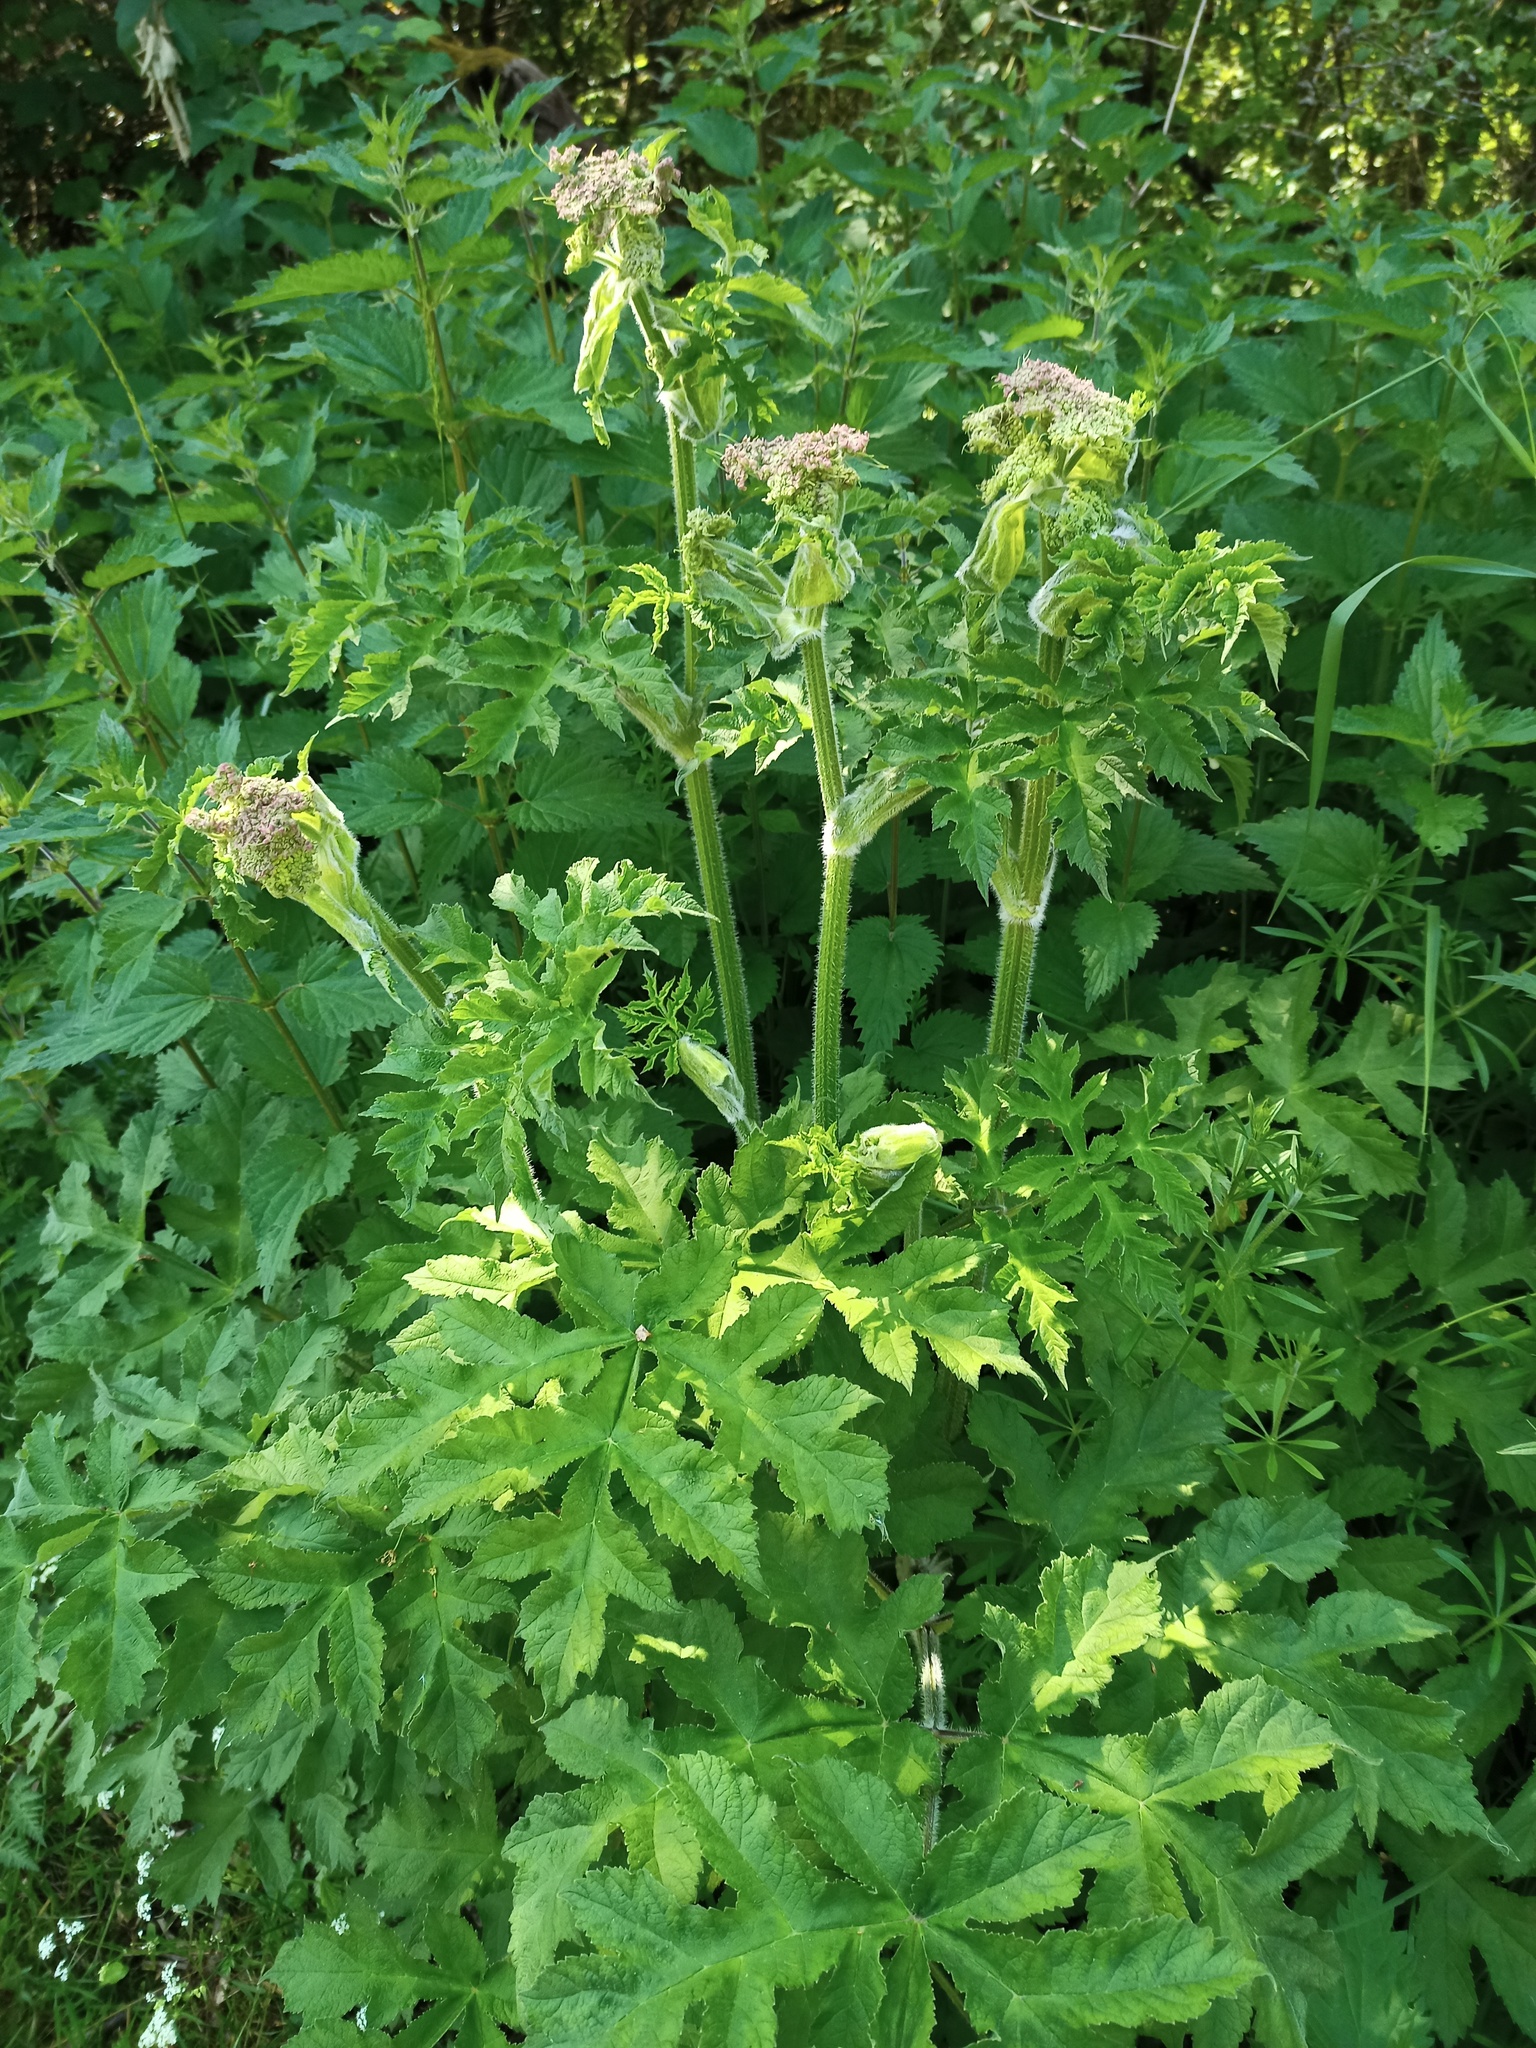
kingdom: Plantae
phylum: Tracheophyta
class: Magnoliopsida
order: Apiales
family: Apiaceae
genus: Heracleum
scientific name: Heracleum sphondylium
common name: Hogweed
